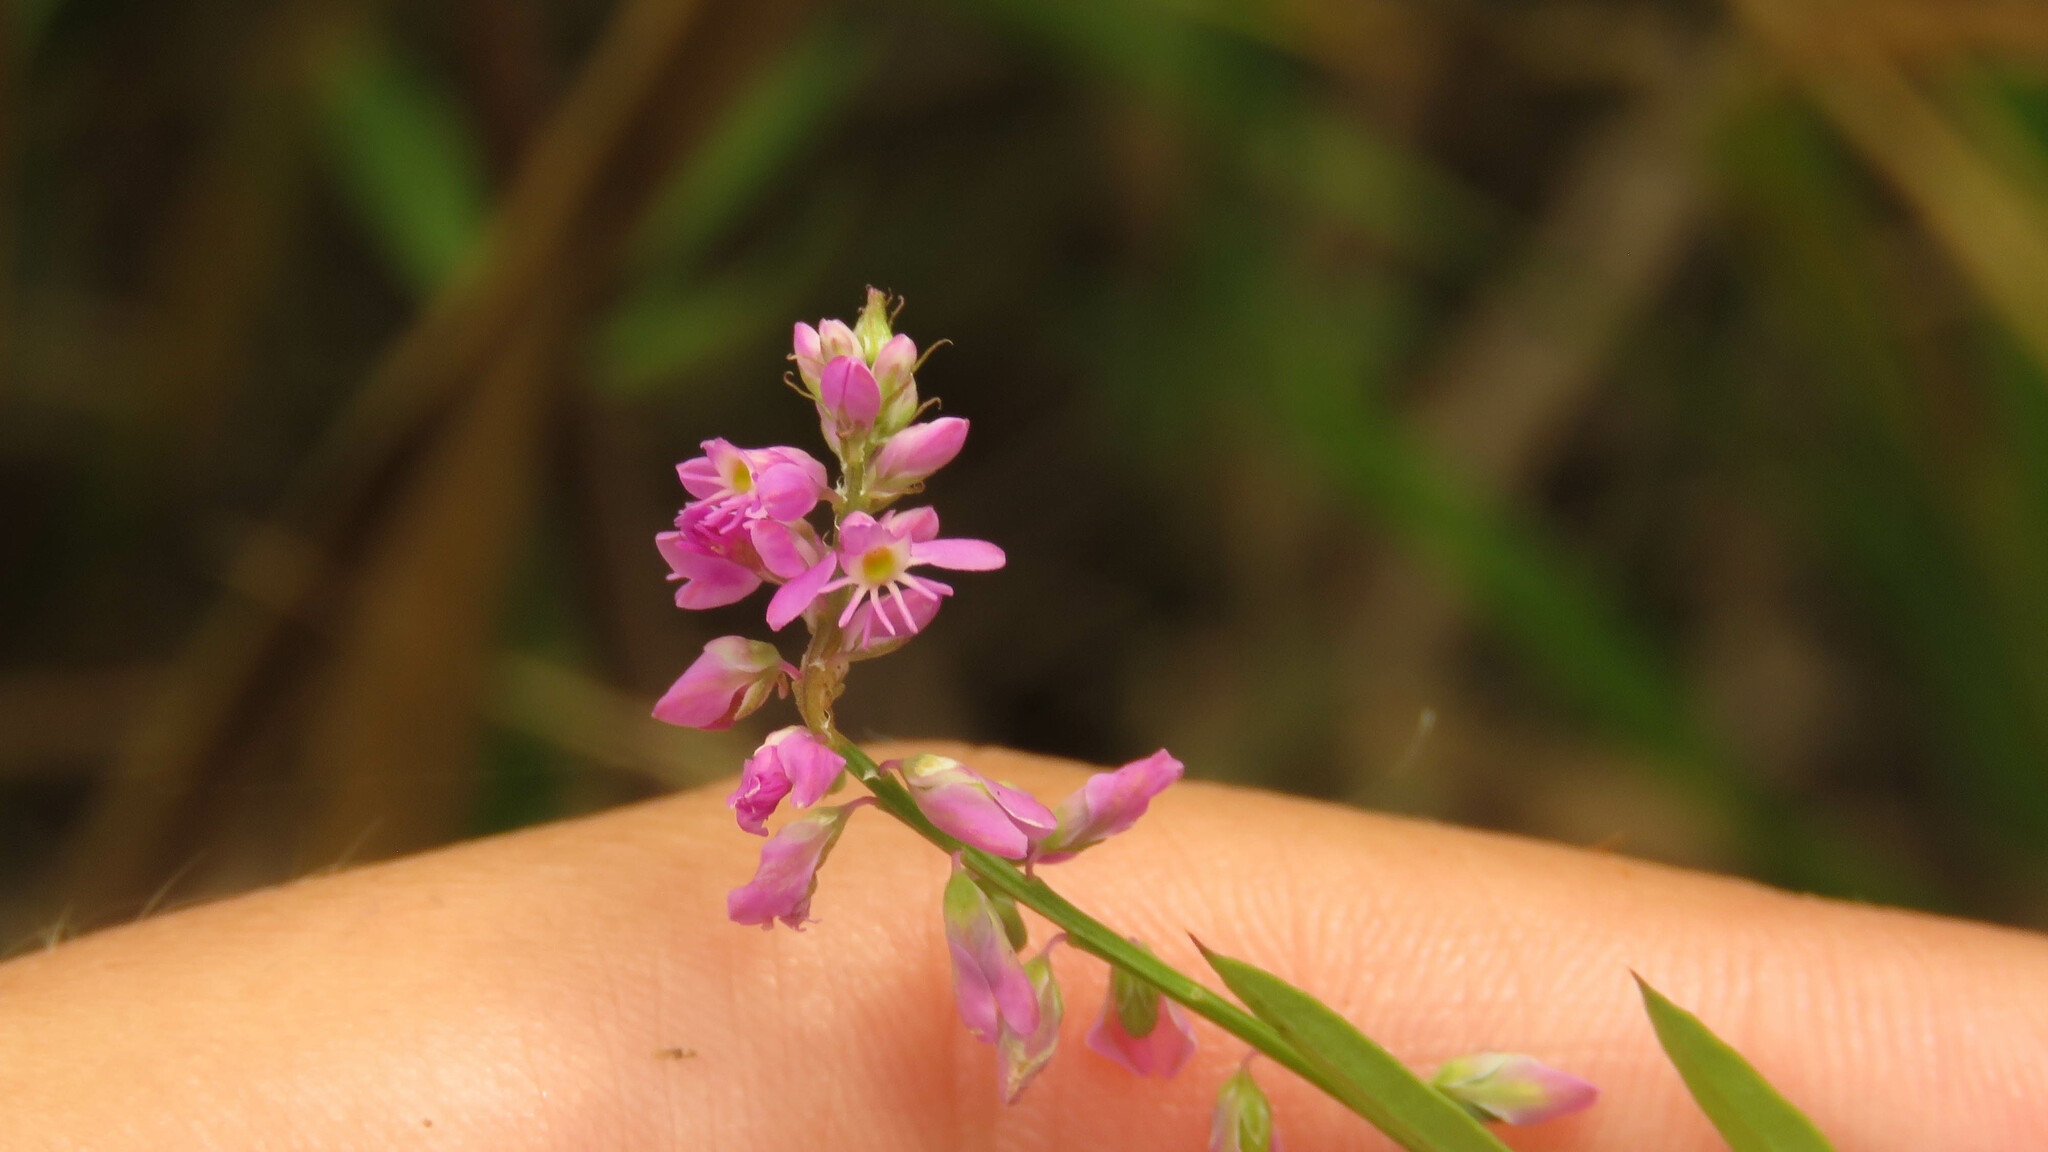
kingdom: Plantae
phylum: Tracheophyta
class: Magnoliopsida
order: Fabales
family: Polygalaceae
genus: Polygala
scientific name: Polygala molluginifolia
